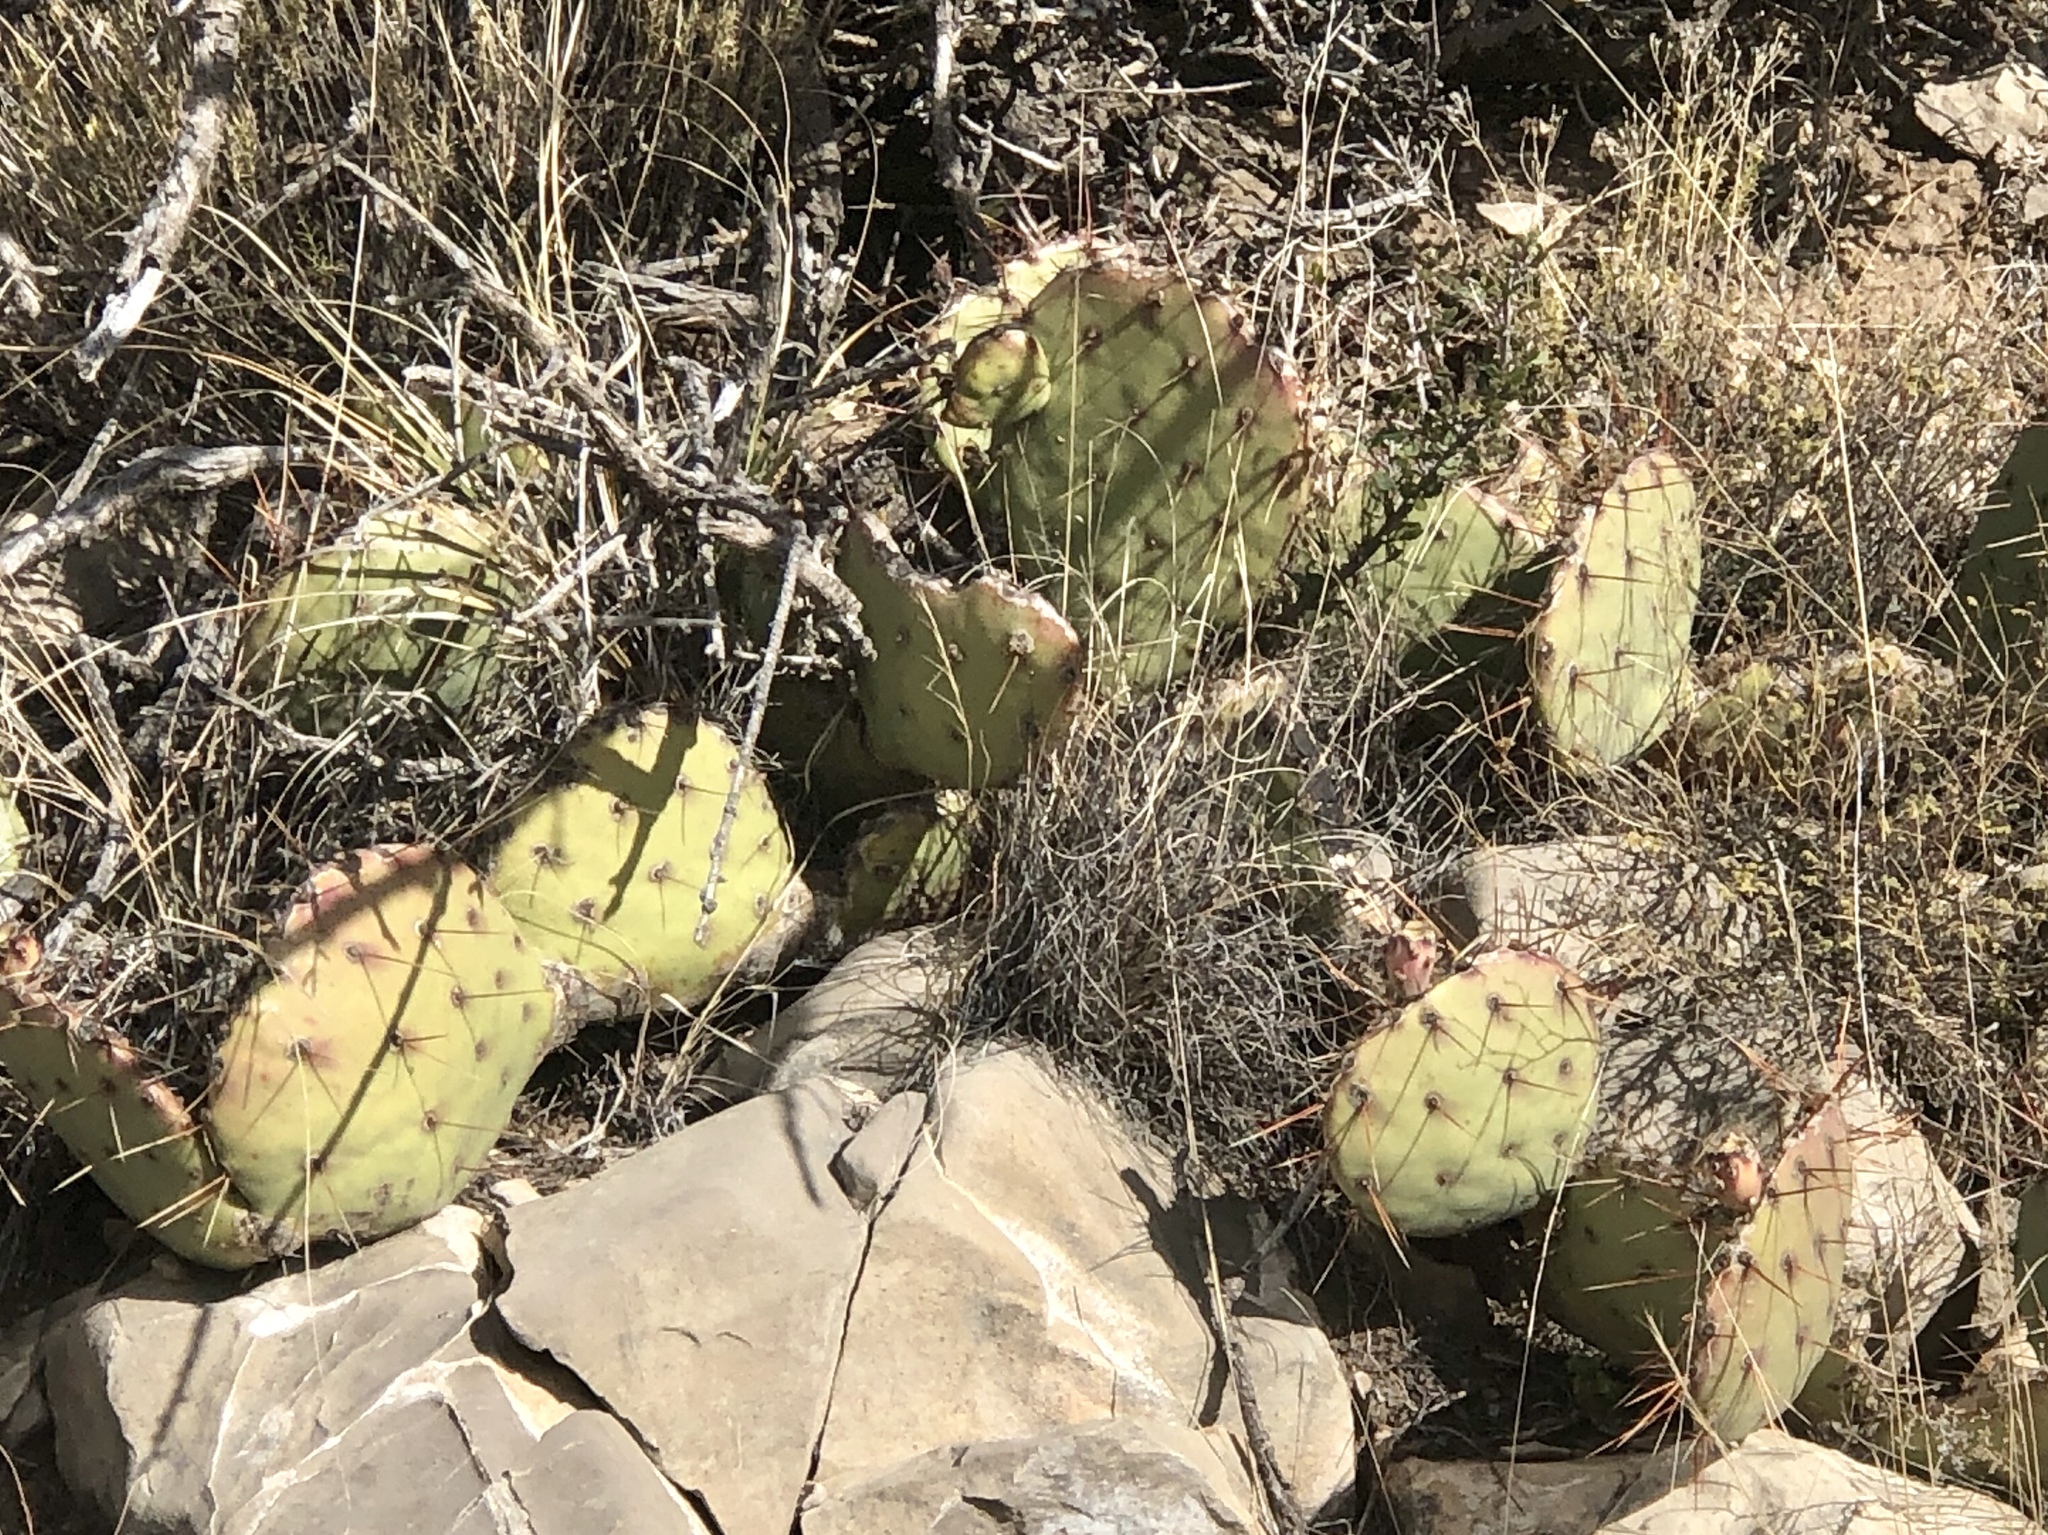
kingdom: Plantae
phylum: Tracheophyta
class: Magnoliopsida
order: Caryophyllales
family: Cactaceae
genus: Opuntia
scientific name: Opuntia engelmannii
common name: Cactus-apple
